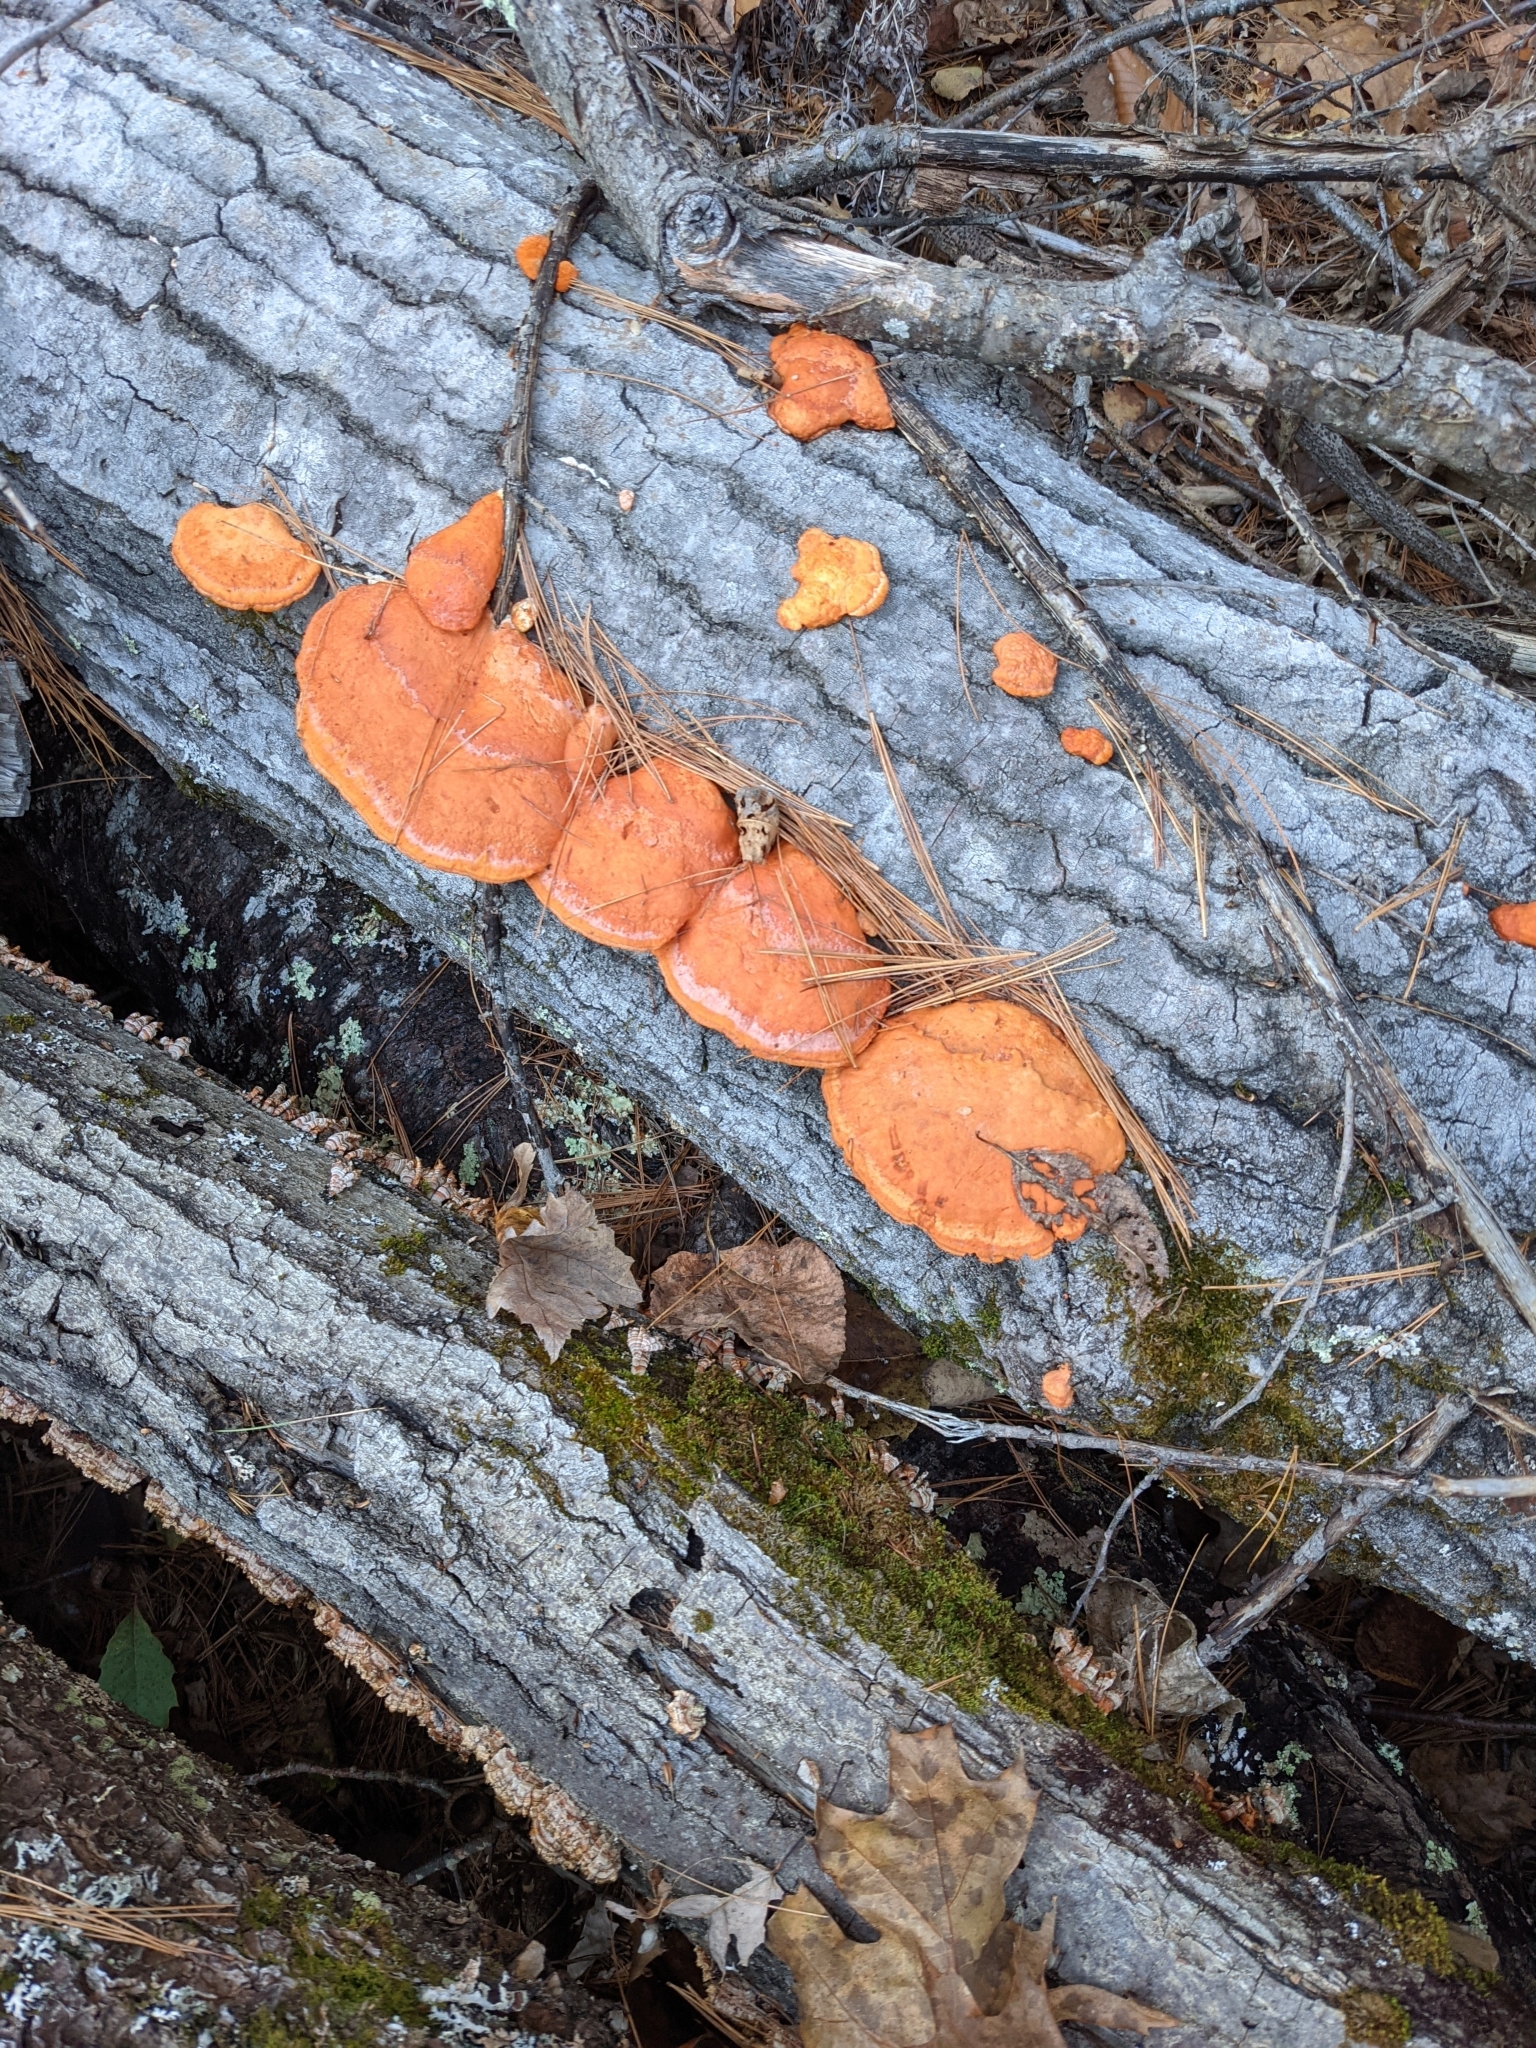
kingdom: Fungi
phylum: Basidiomycota
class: Agaricomycetes
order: Polyporales
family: Polyporaceae
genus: Trametes
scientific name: Trametes cinnabarina
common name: Northern cinnabar polypore
